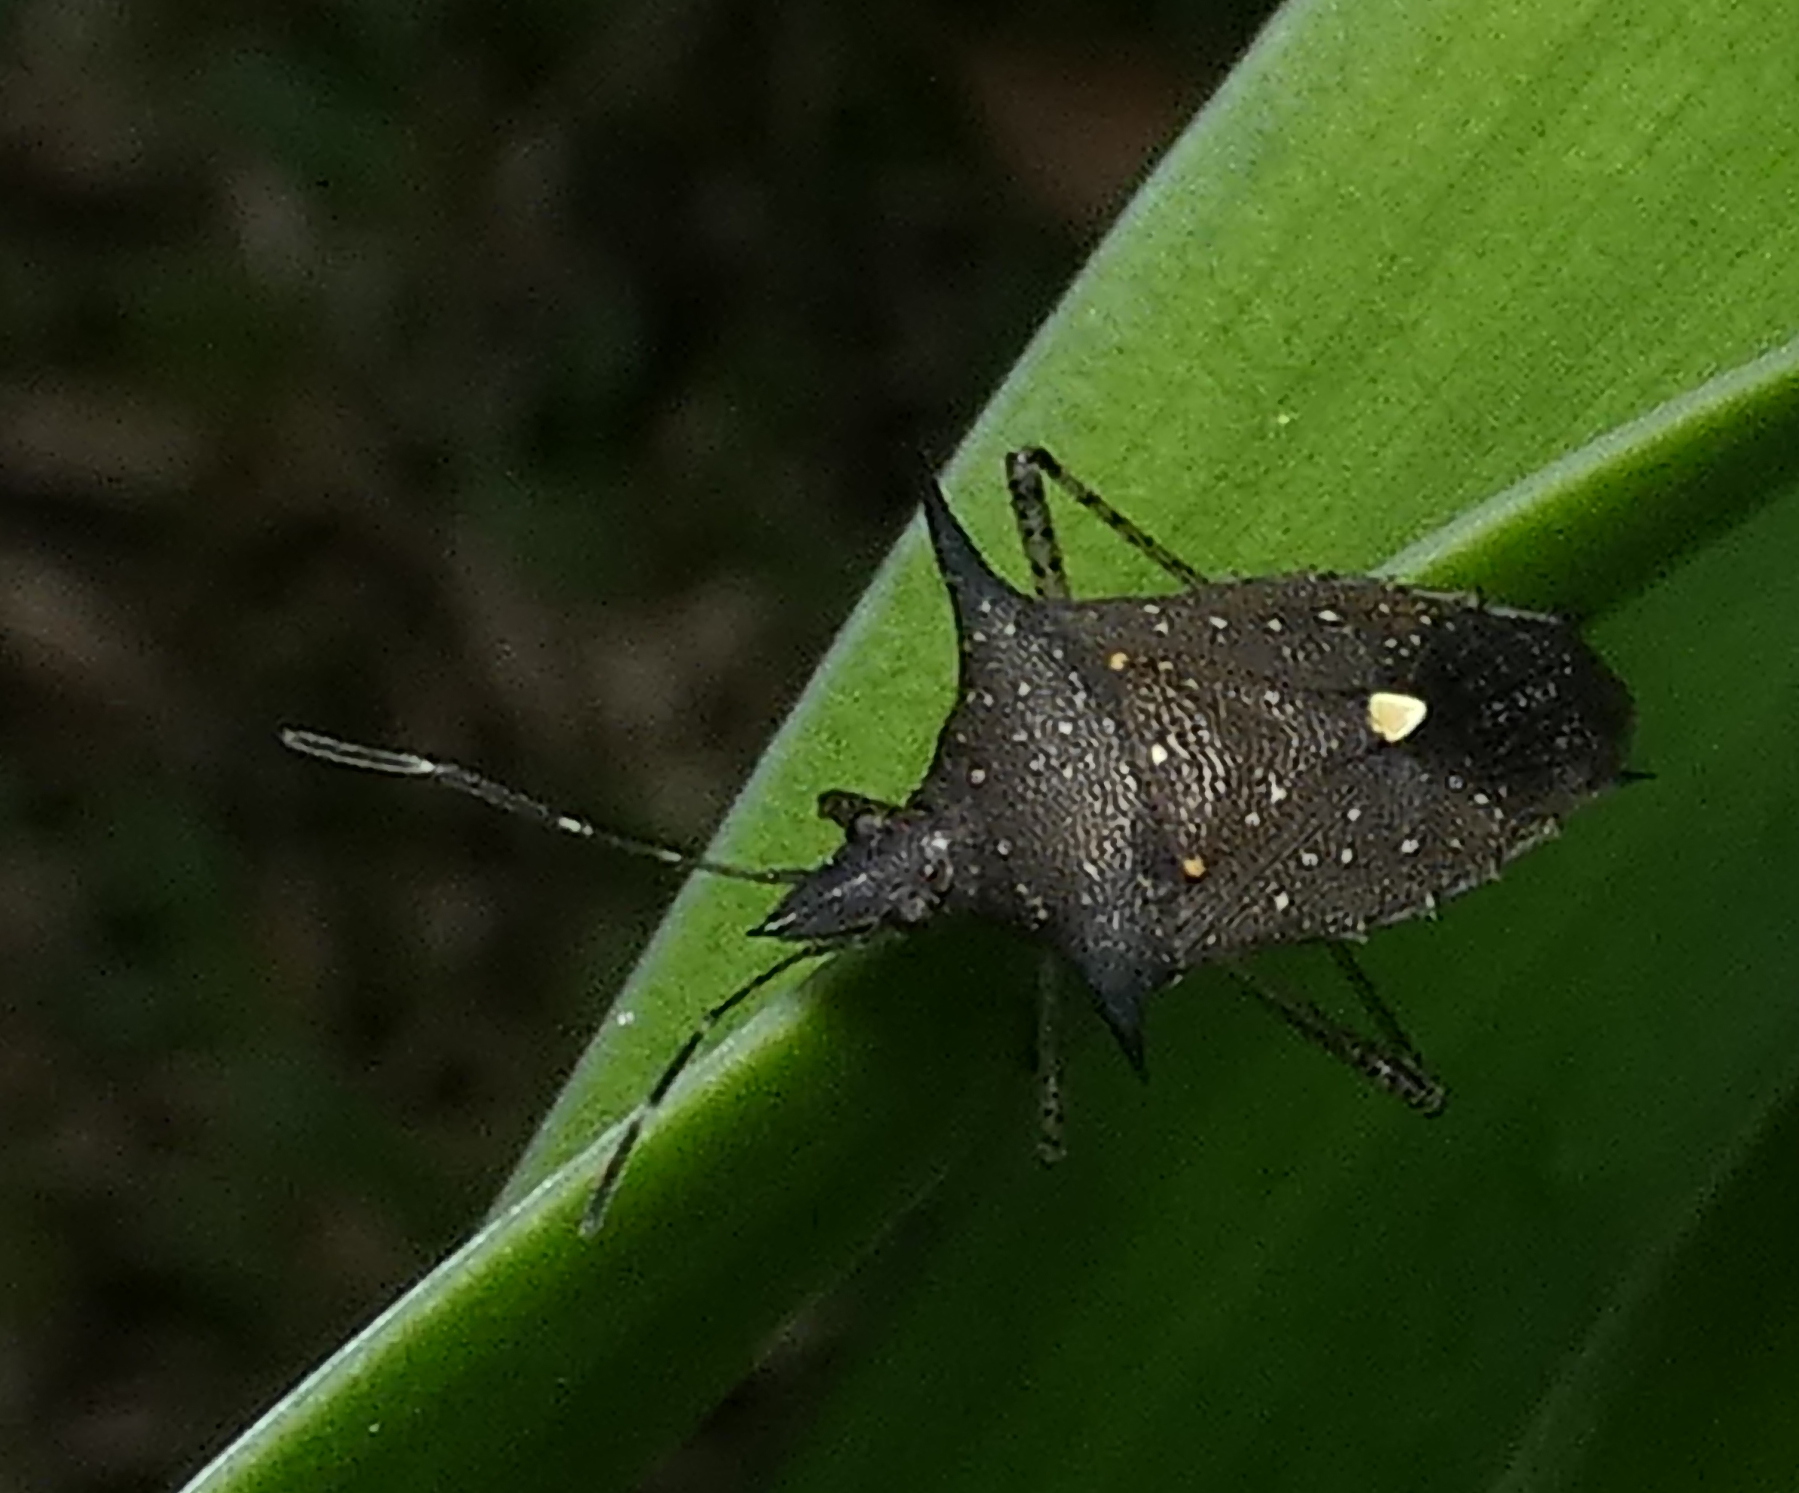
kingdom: Animalia
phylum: Arthropoda
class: Insecta
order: Hemiptera
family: Pentatomidae
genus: Proxys
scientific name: Proxys albopunctulatus
